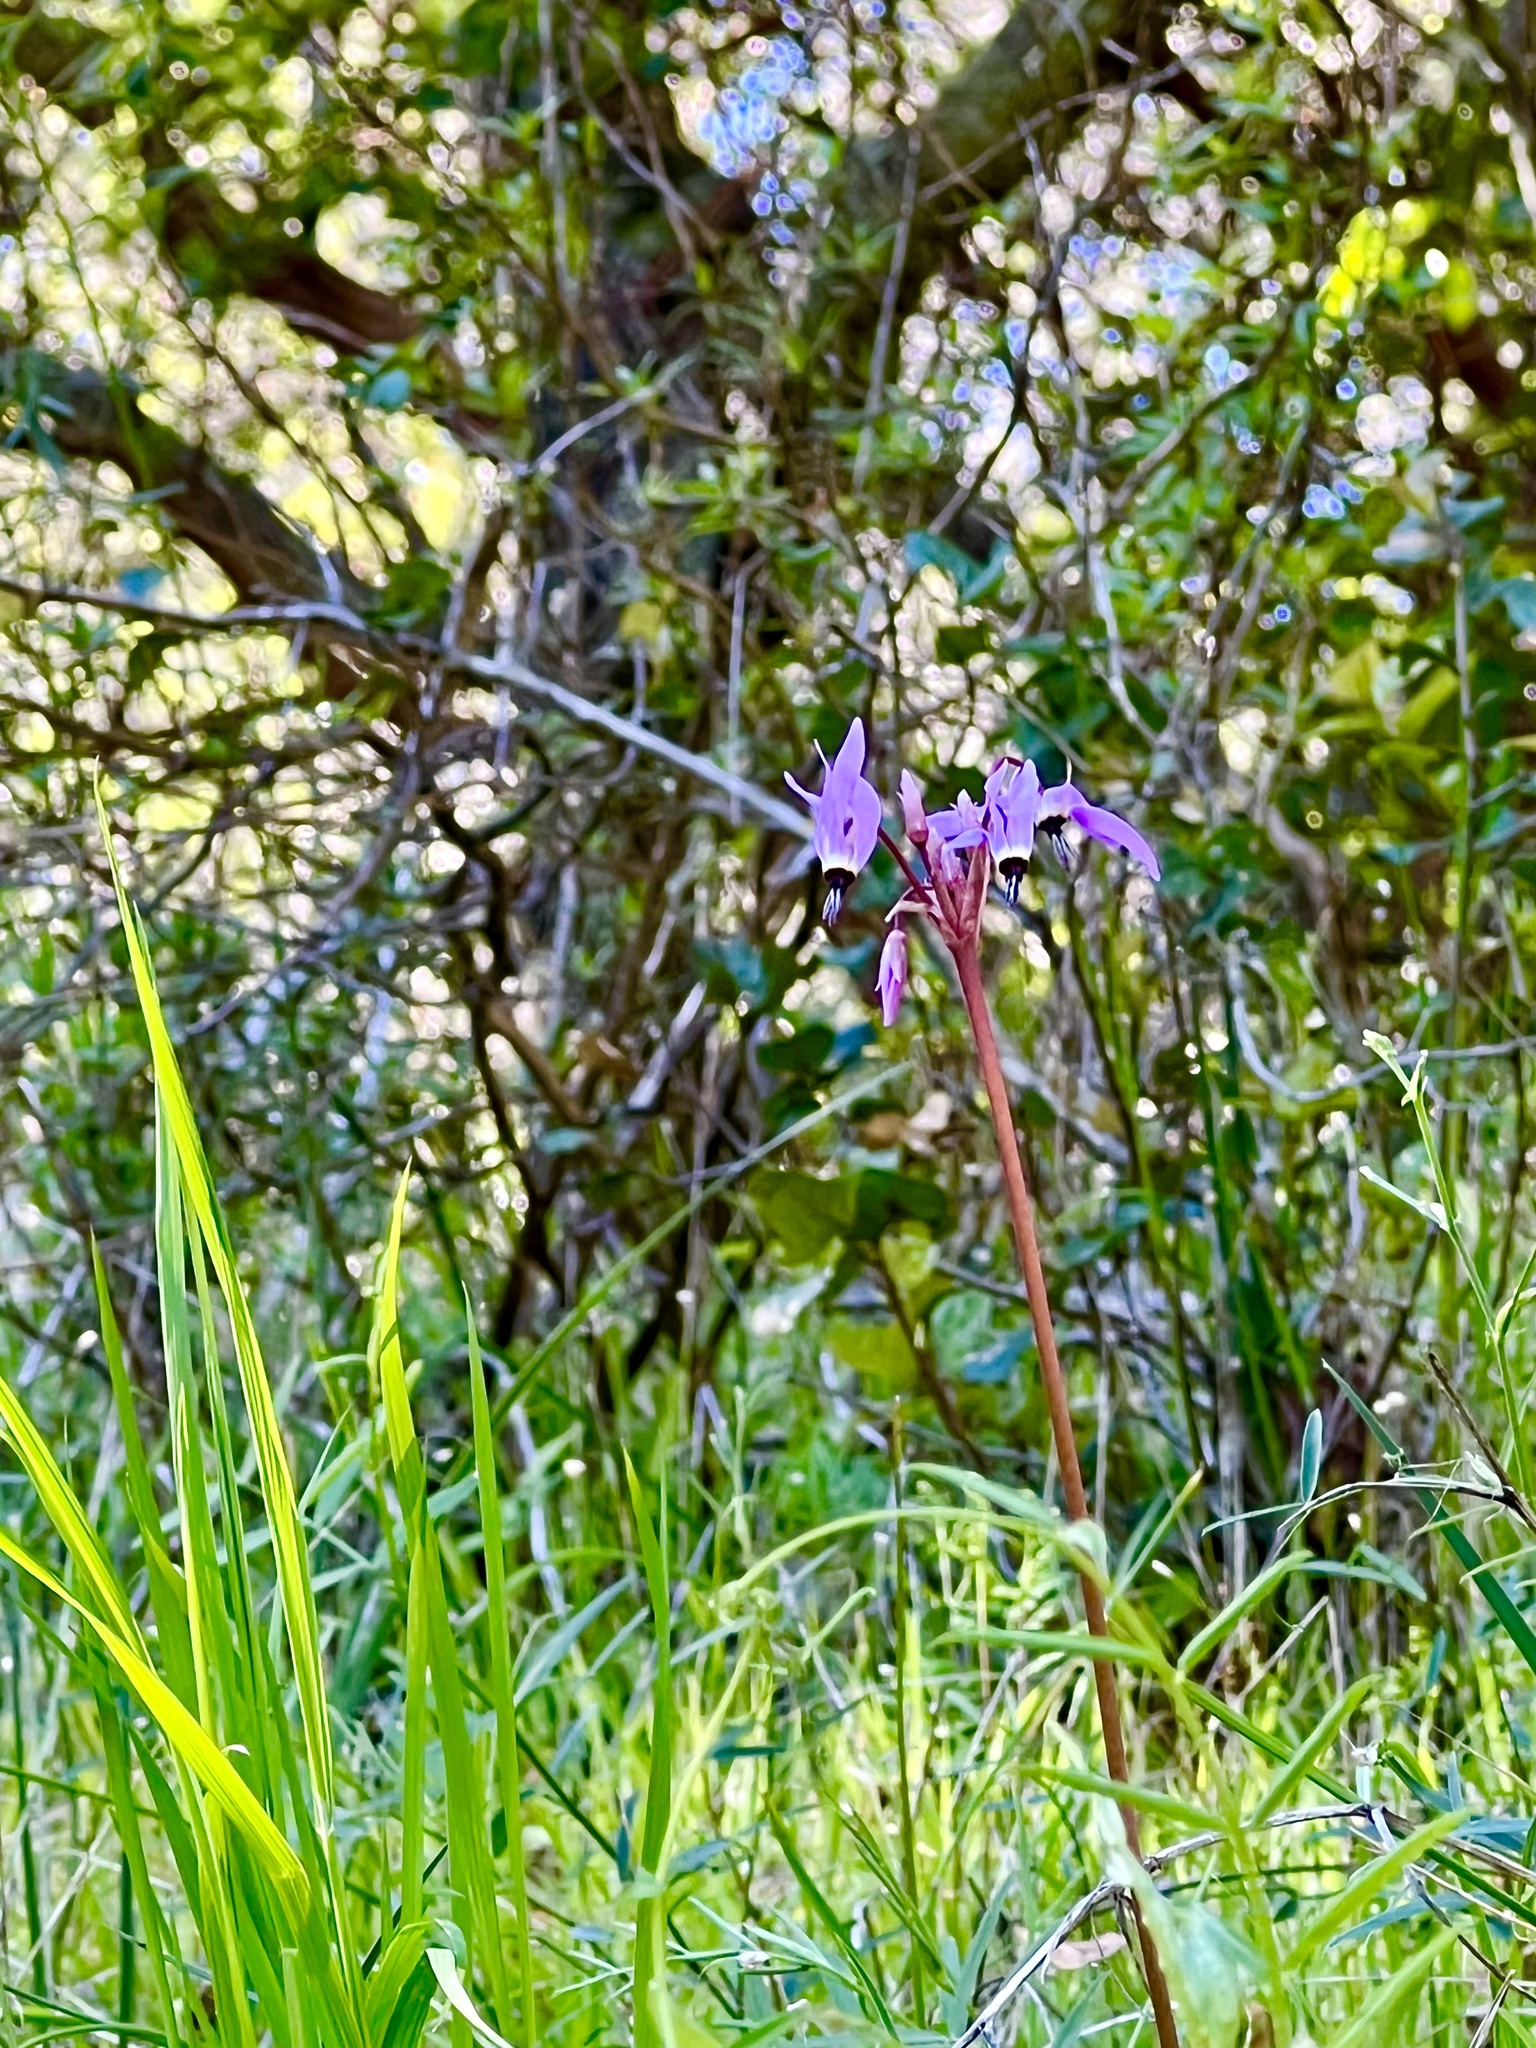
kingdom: Plantae
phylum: Tracheophyta
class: Magnoliopsida
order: Ericales
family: Primulaceae
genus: Dodecatheon
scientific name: Dodecatheon hendersonii
